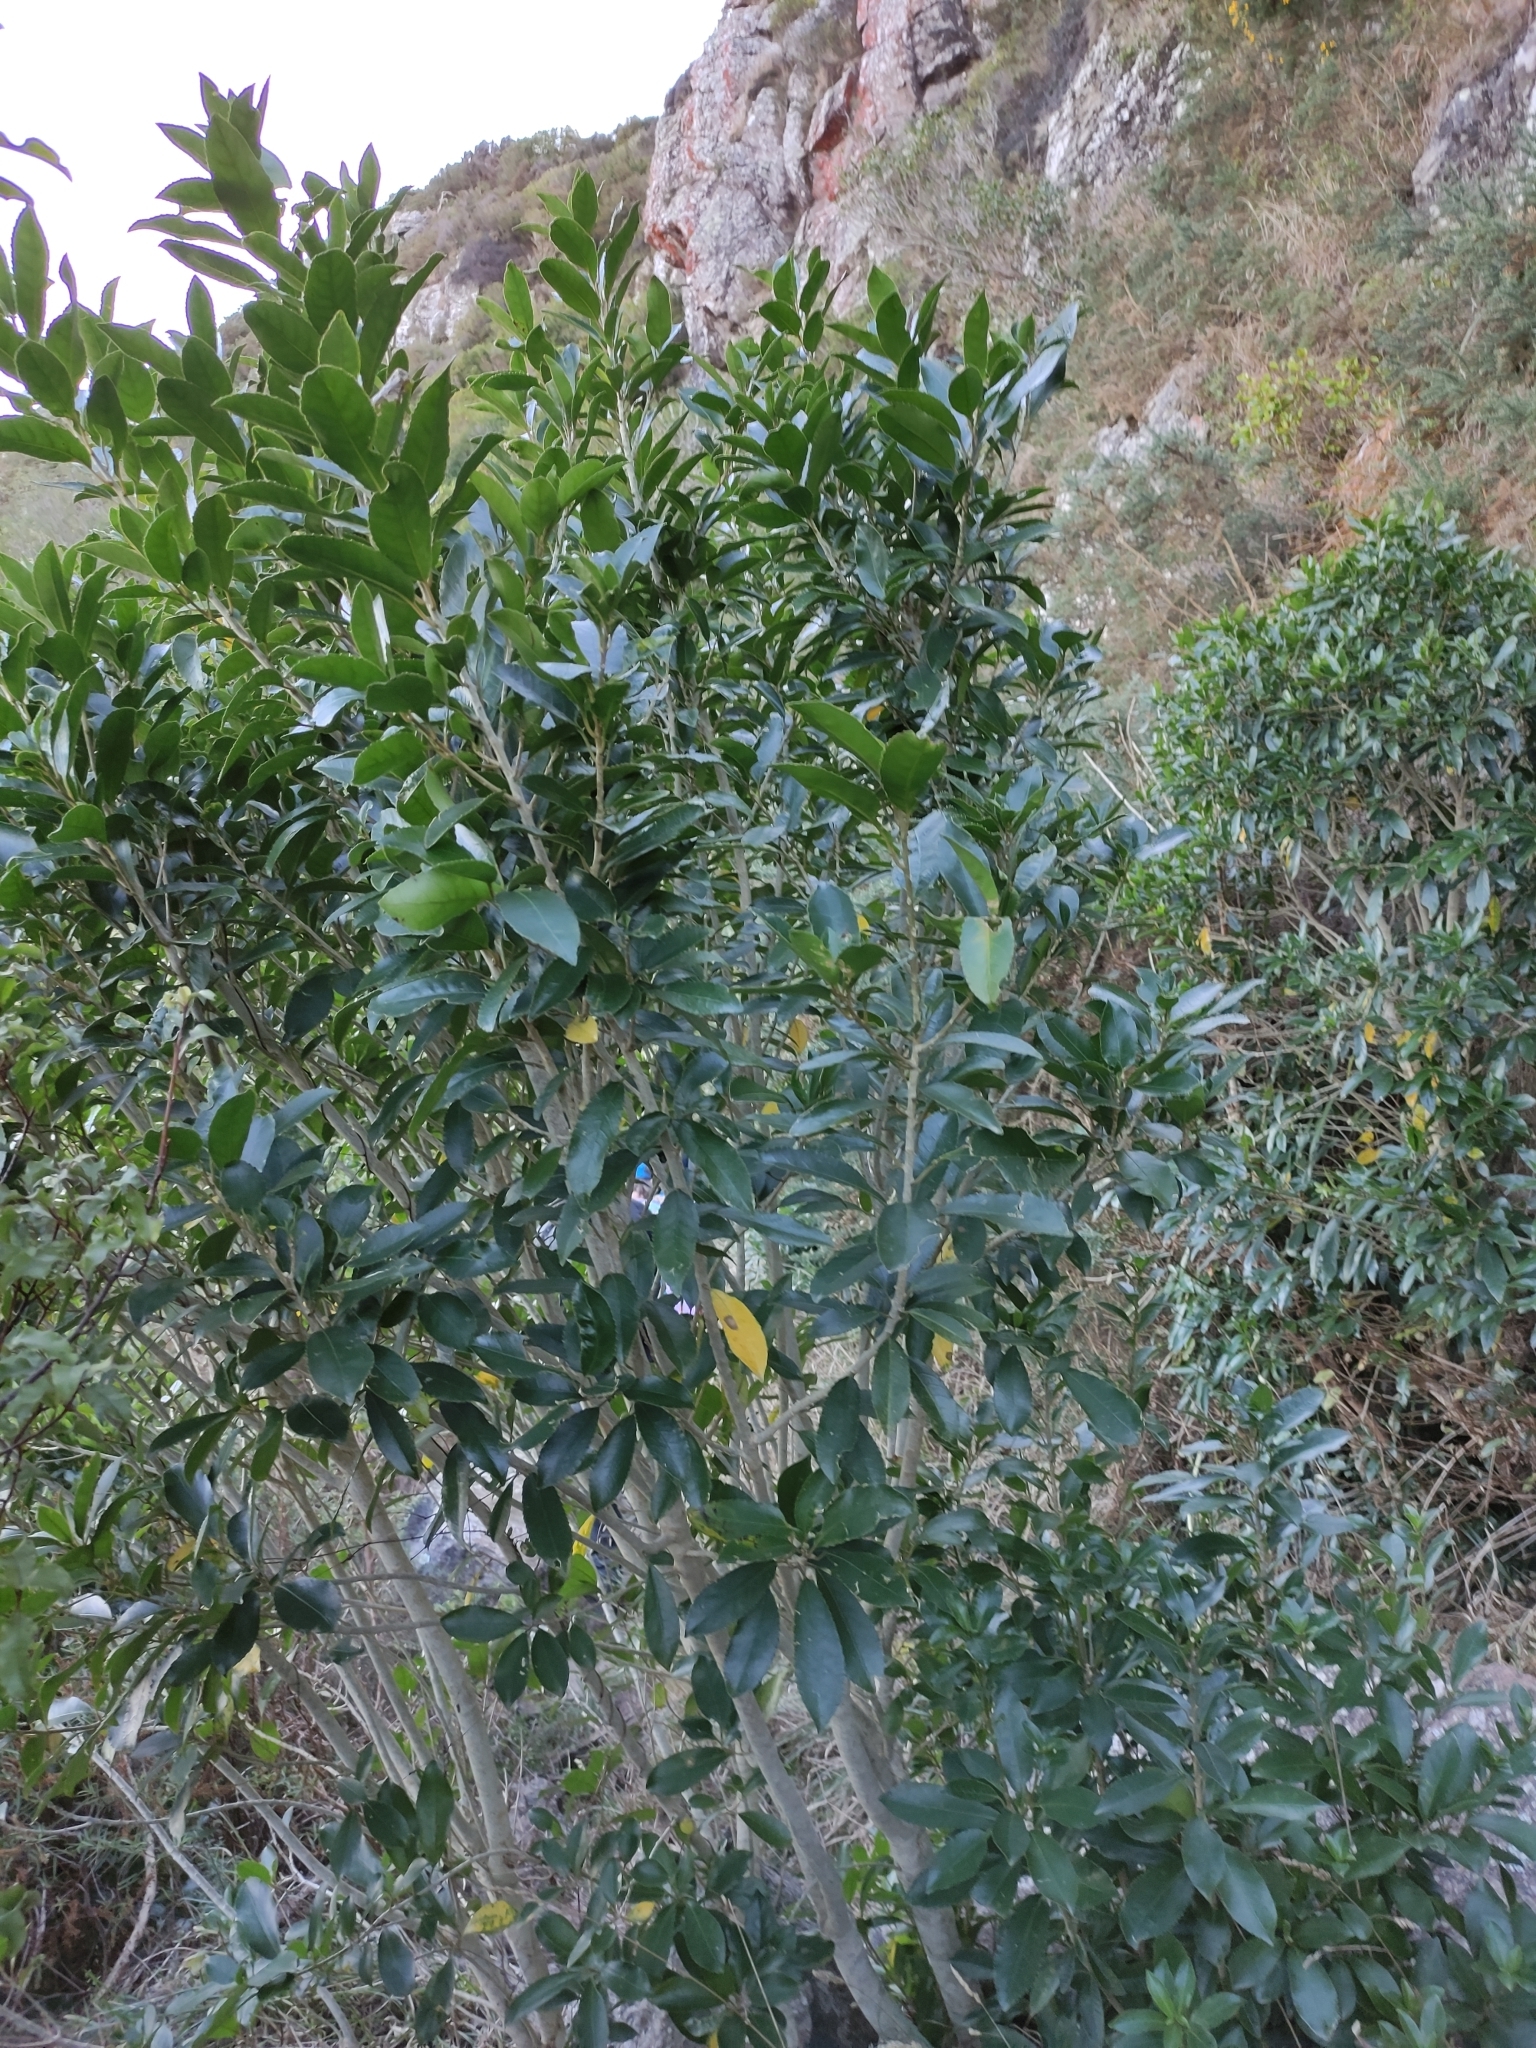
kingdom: Plantae
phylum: Tracheophyta
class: Magnoliopsida
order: Malpighiales
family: Violaceae
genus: Melicytus
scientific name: Melicytus ramiflorus
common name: Mahoe
